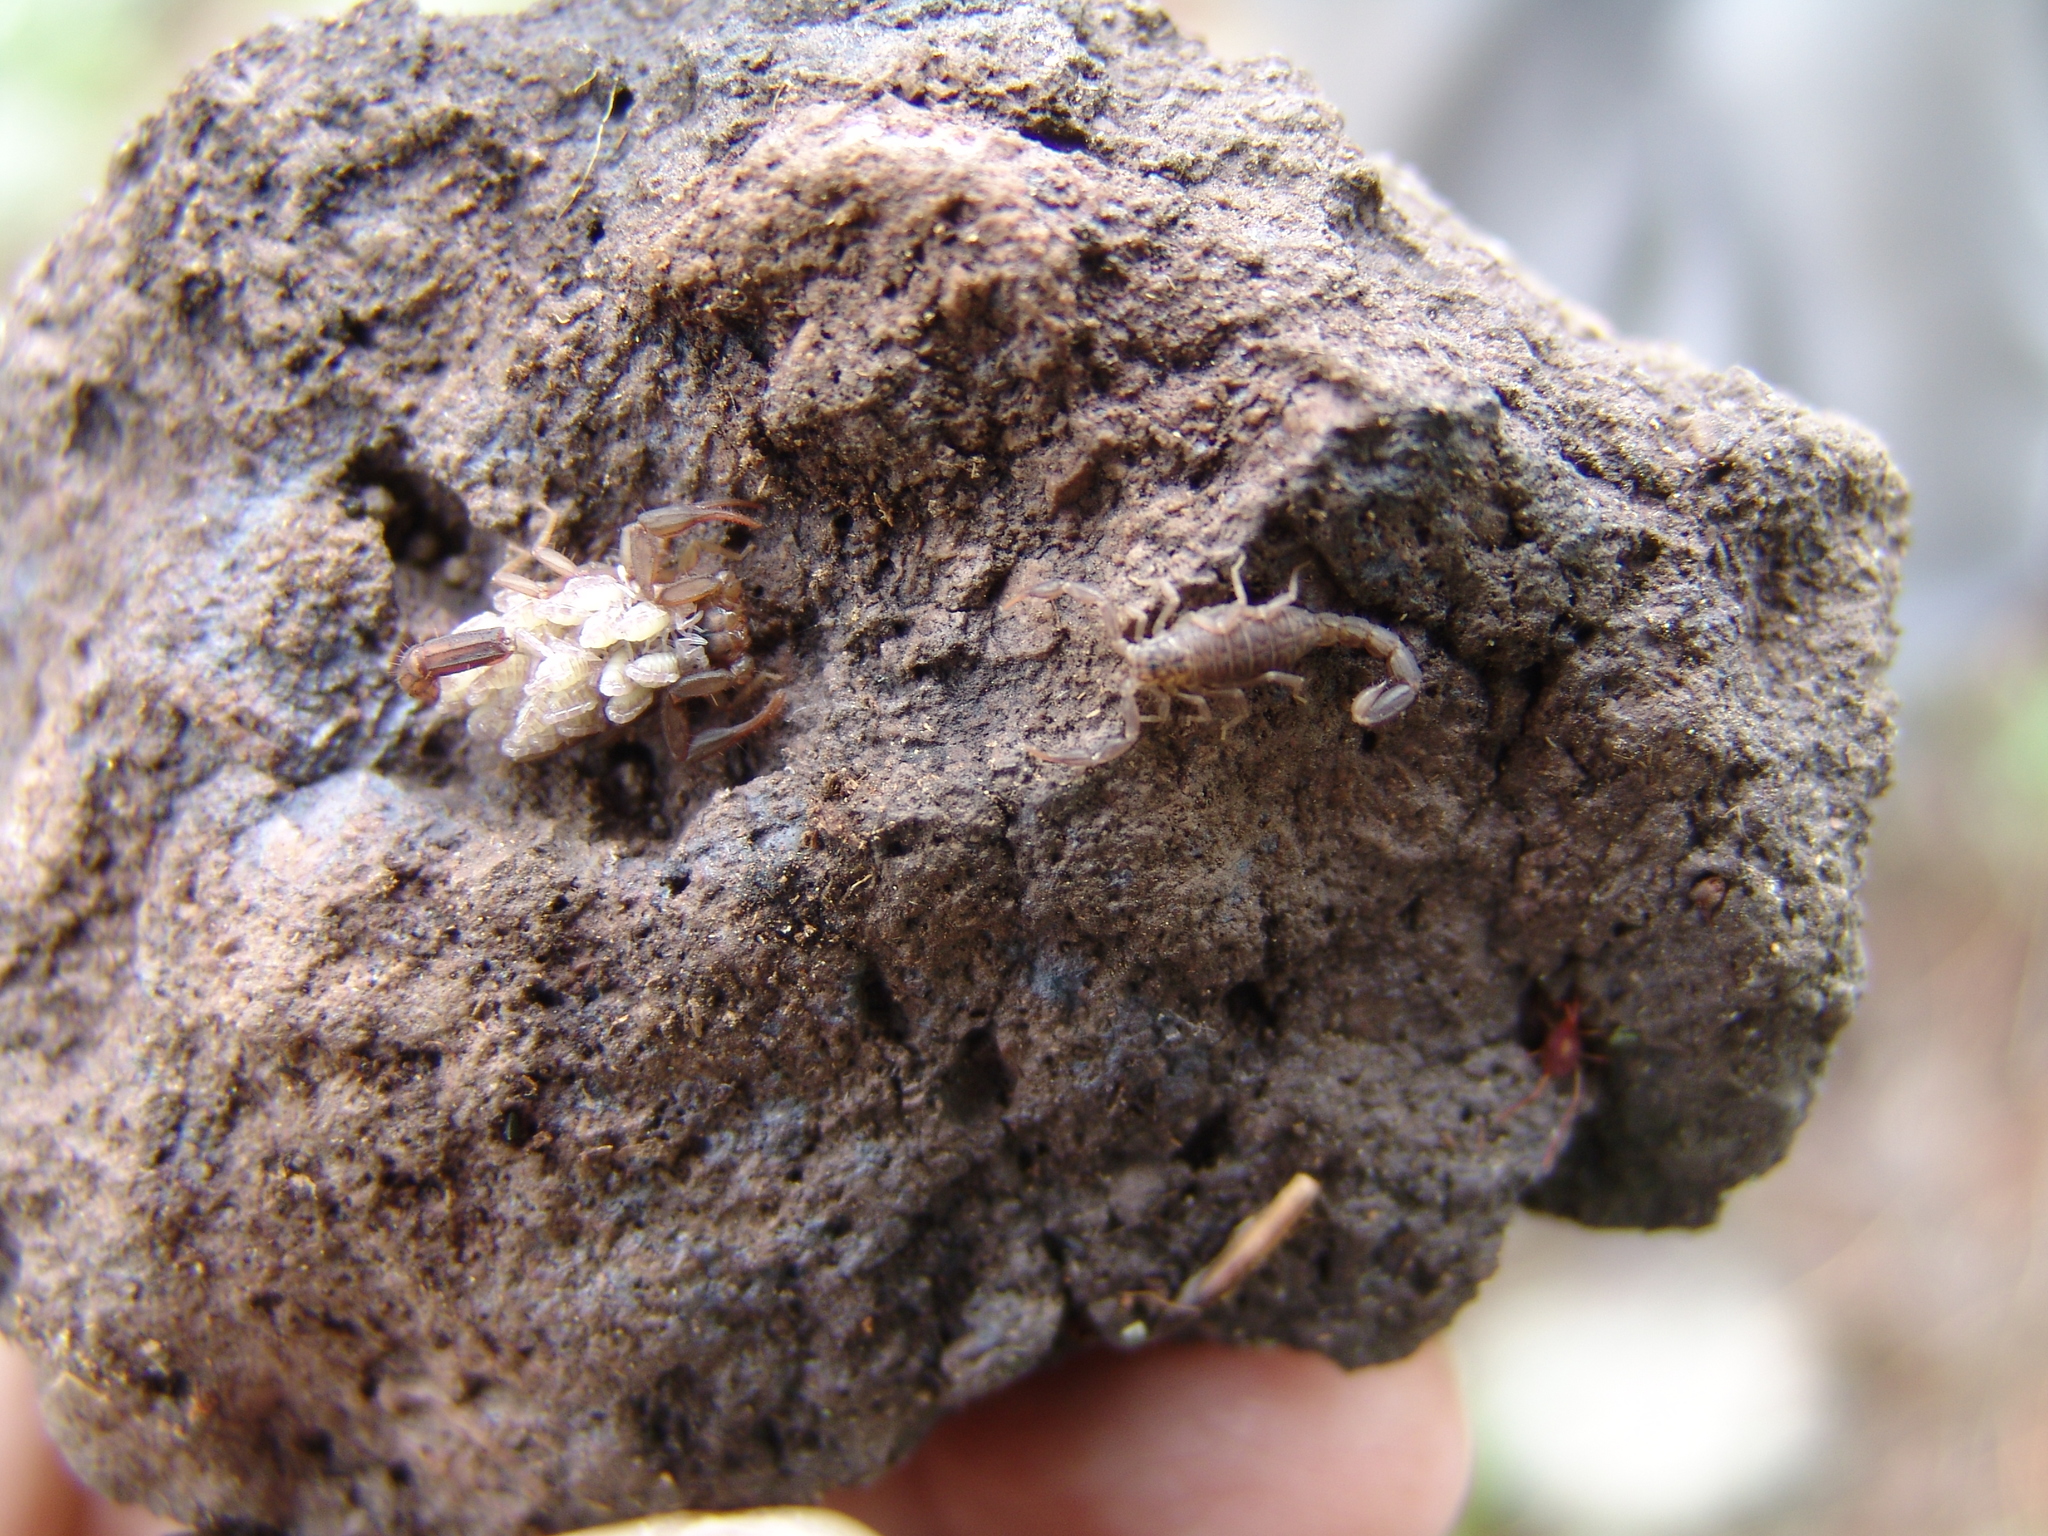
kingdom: Animalia
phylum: Arthropoda
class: Arachnida
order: Scorpiones
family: Vaejovidae
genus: Vaejovis
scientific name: Vaejovis cashi
